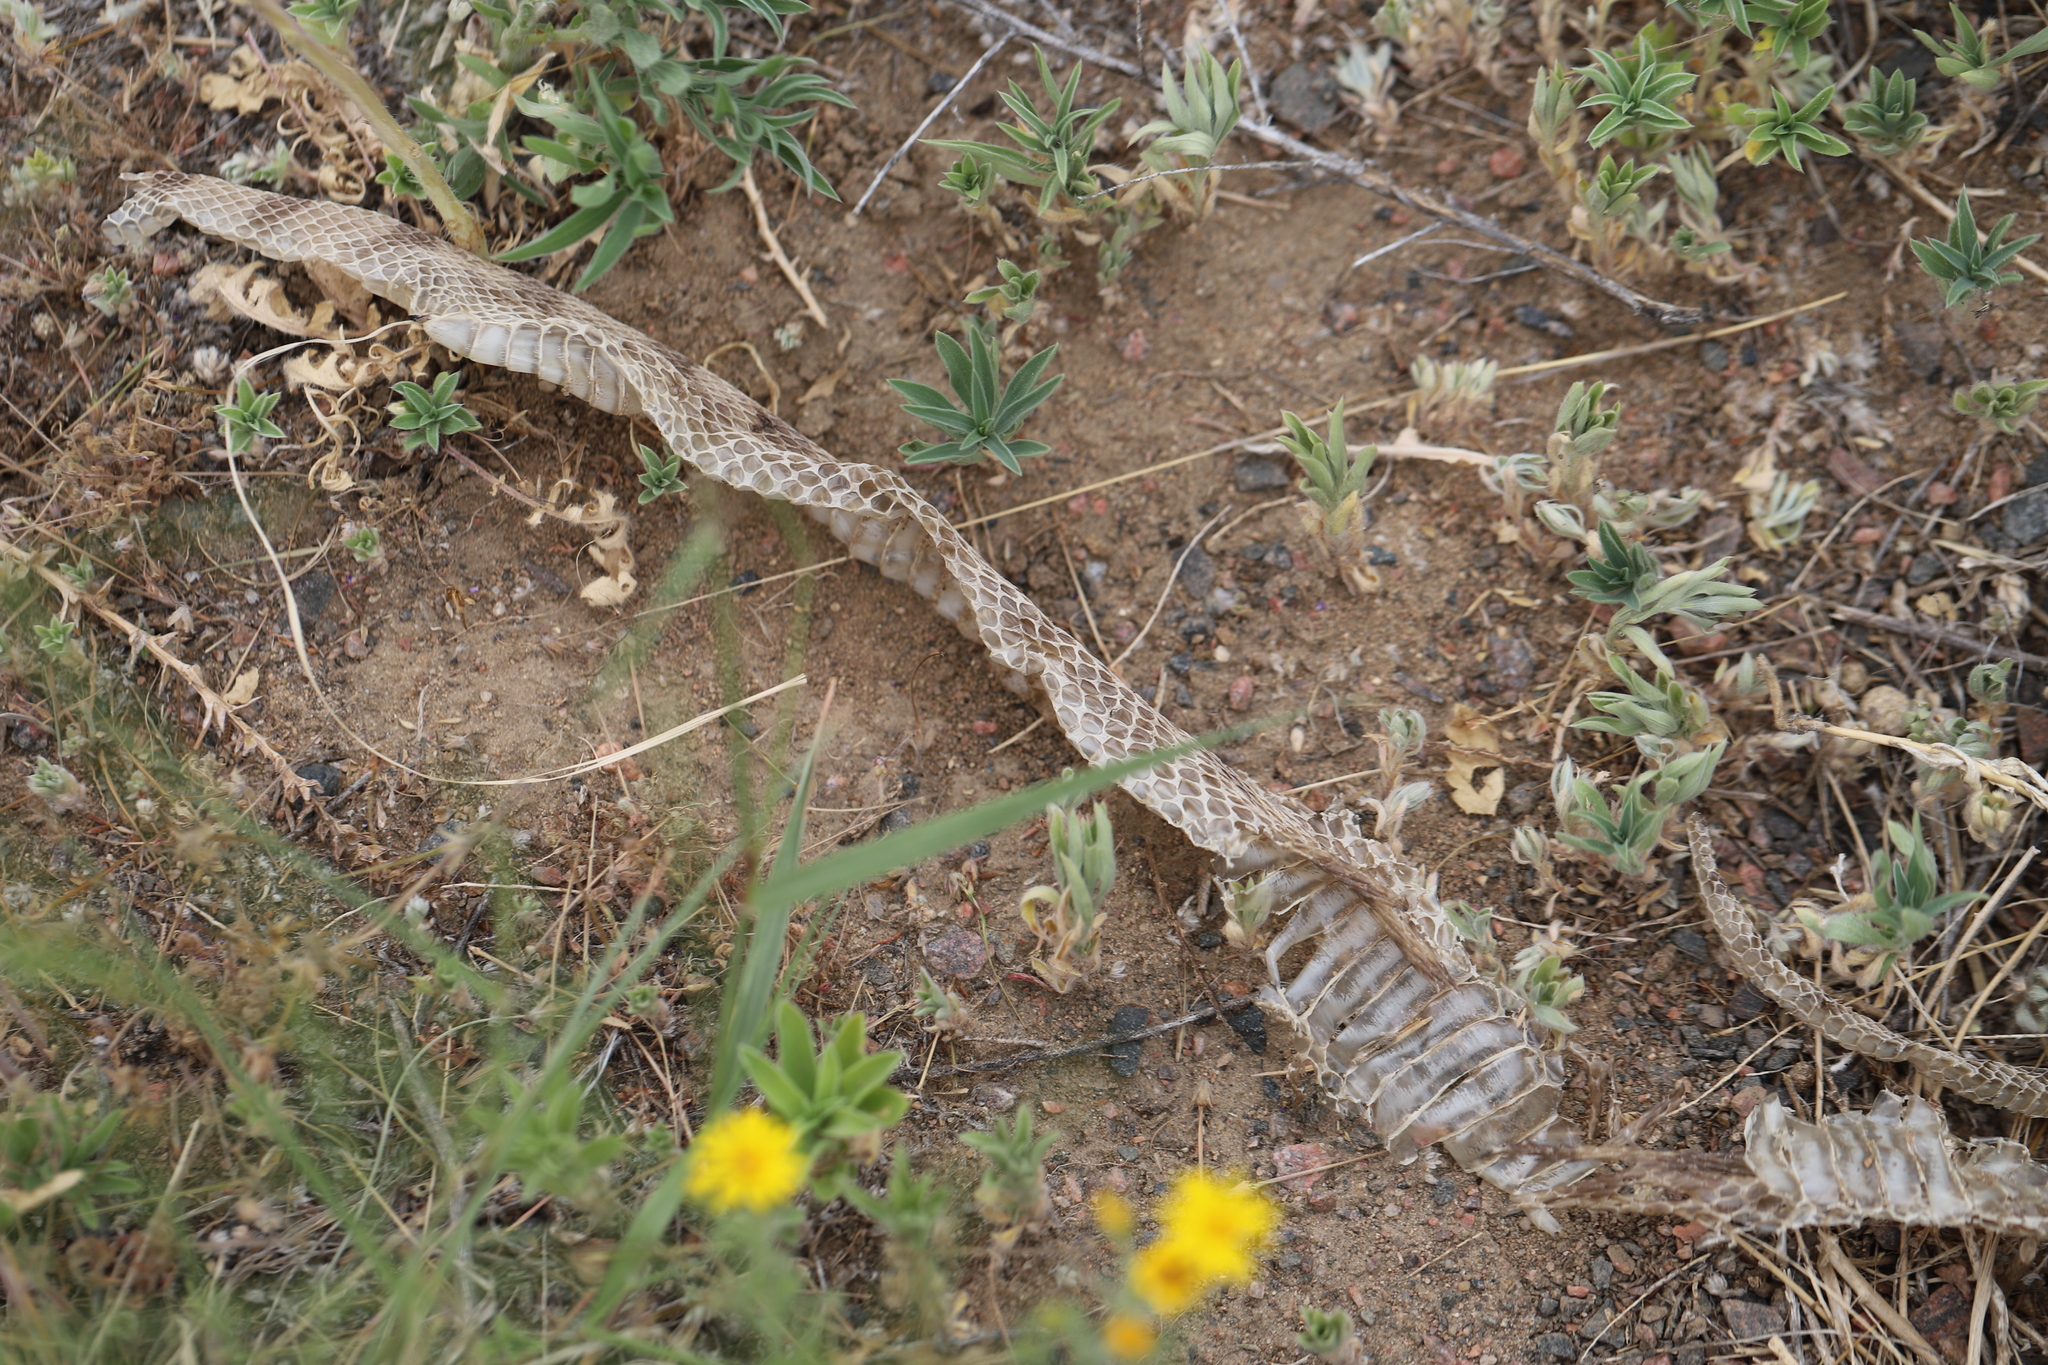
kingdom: Animalia
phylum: Chordata
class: Squamata
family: Colubridae
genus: Pituophis
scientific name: Pituophis catenifer
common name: Gopher snake
